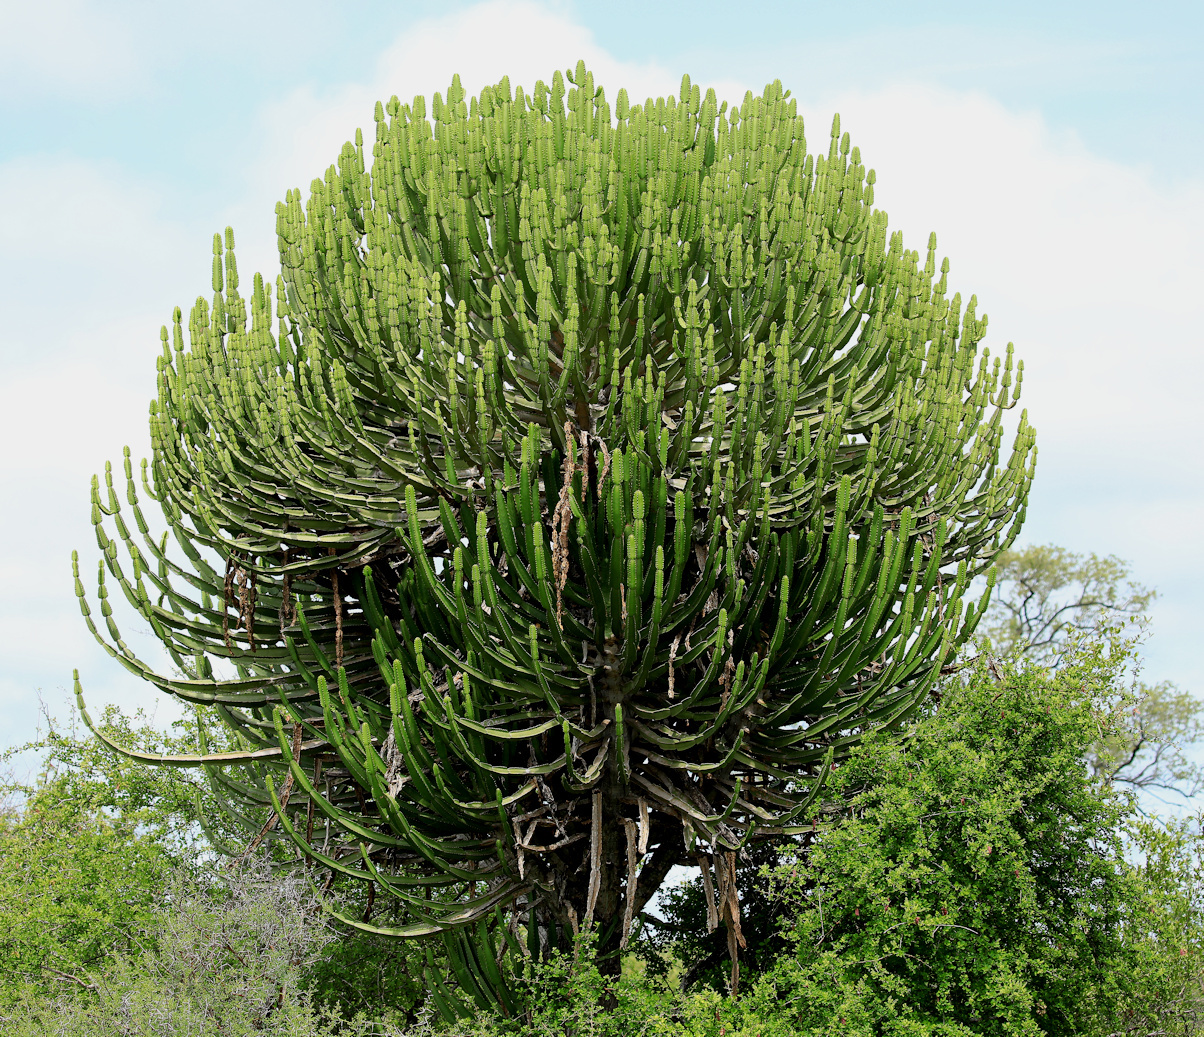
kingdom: Plantae
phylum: Tracheophyta
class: Magnoliopsida
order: Malpighiales
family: Euphorbiaceae
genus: Euphorbia
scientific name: Euphorbia confinalis
